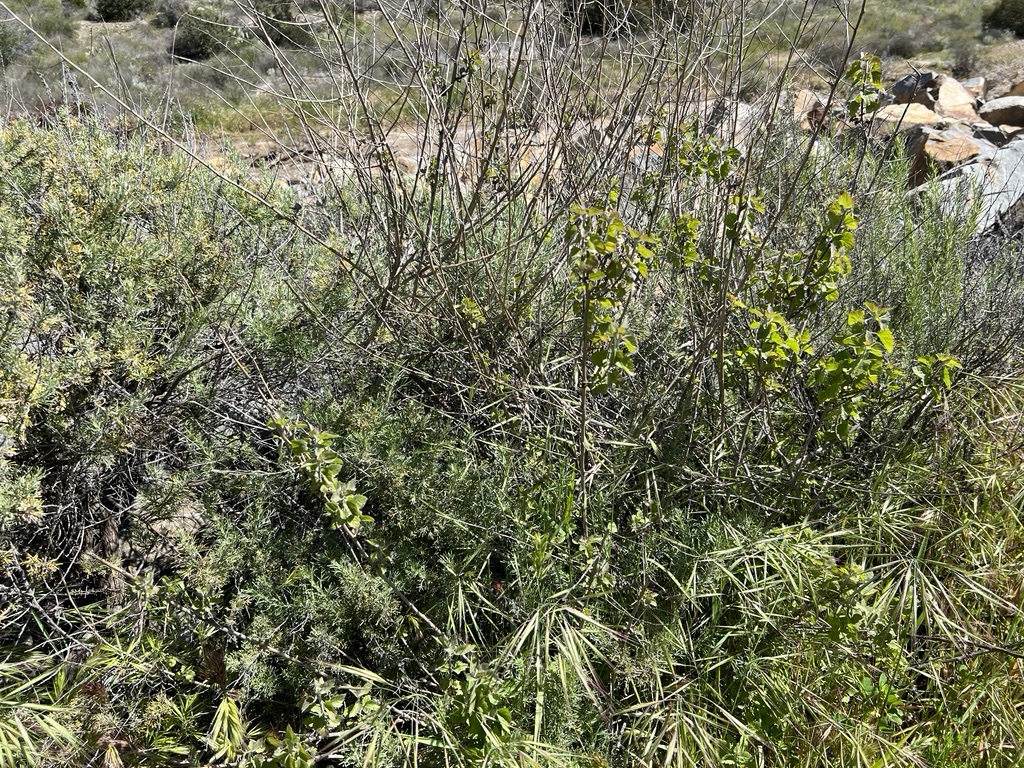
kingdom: Plantae
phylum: Tracheophyta
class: Magnoliopsida
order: Asterales
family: Asteraceae
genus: Brickellia
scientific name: Brickellia californica
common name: California brickellbush
